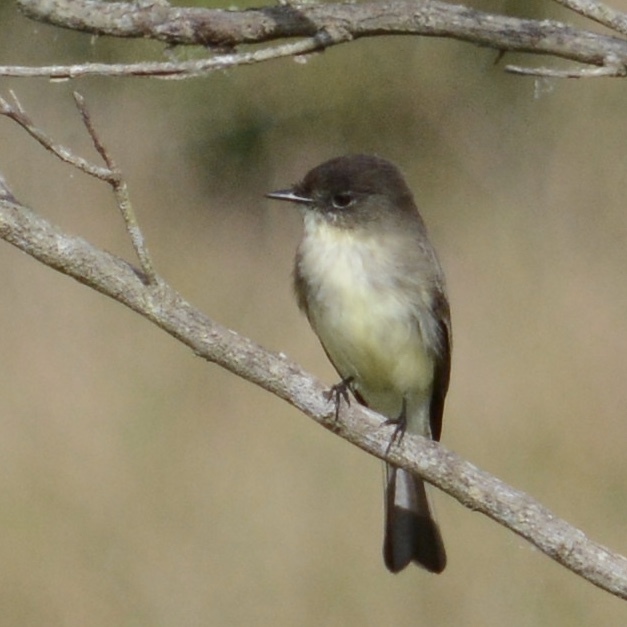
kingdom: Animalia
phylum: Chordata
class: Aves
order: Passeriformes
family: Tyrannidae
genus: Sayornis
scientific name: Sayornis phoebe
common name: Eastern phoebe
